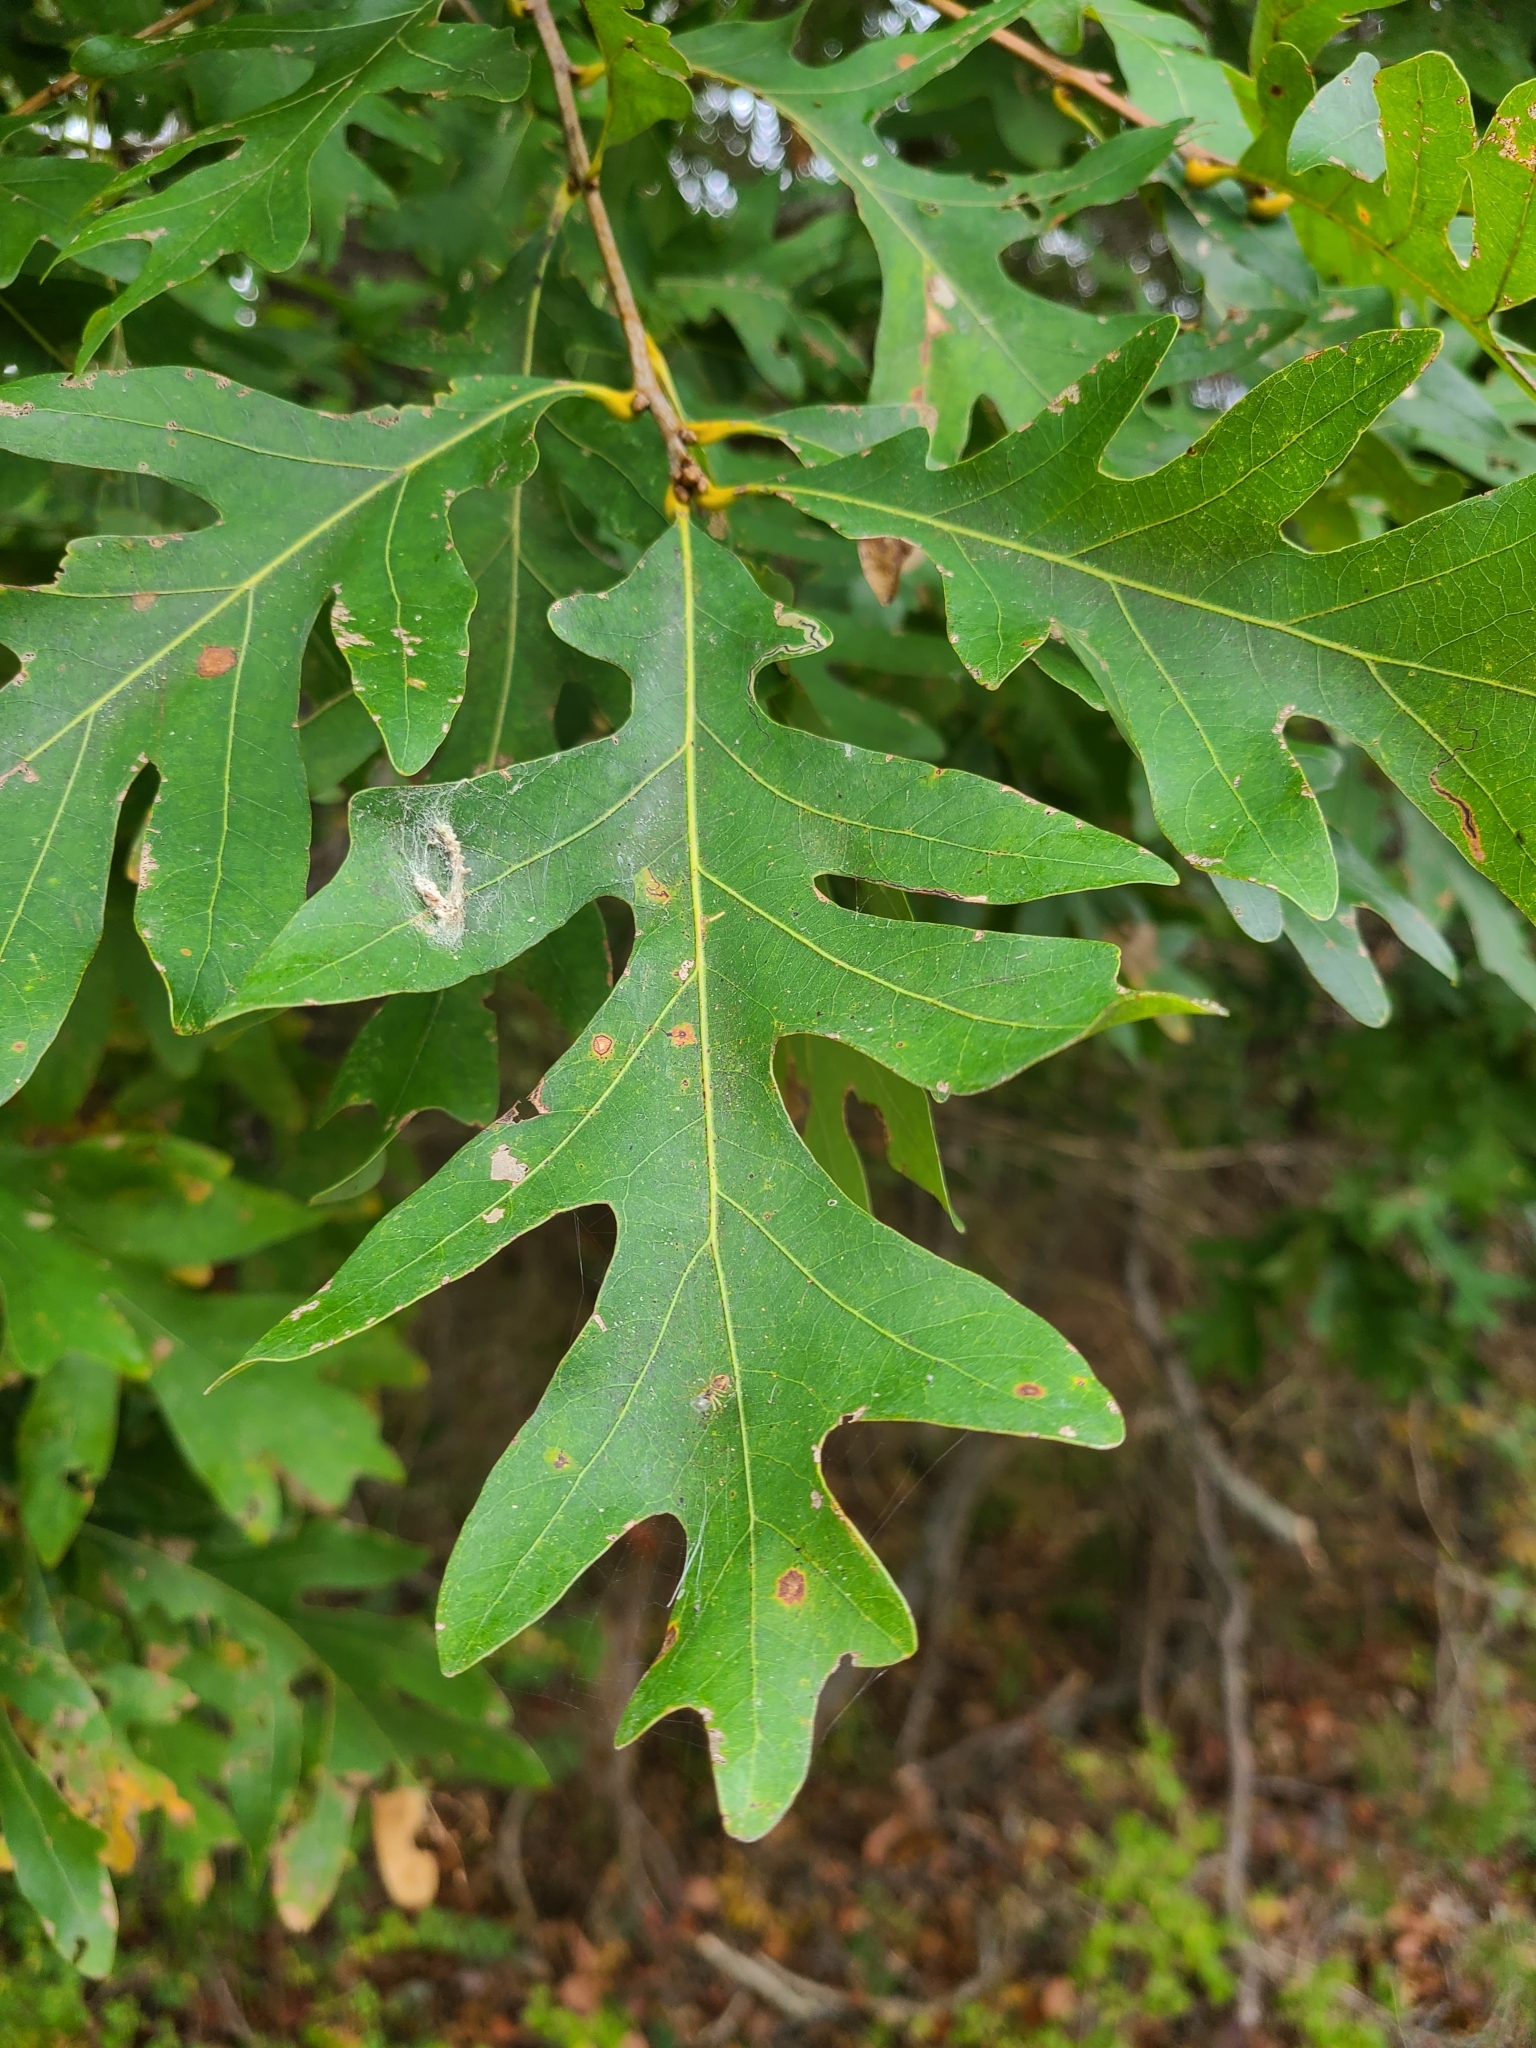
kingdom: Plantae
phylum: Tracheophyta
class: Magnoliopsida
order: Fagales
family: Fagaceae
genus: Quercus
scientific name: Quercus alba
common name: White oak
